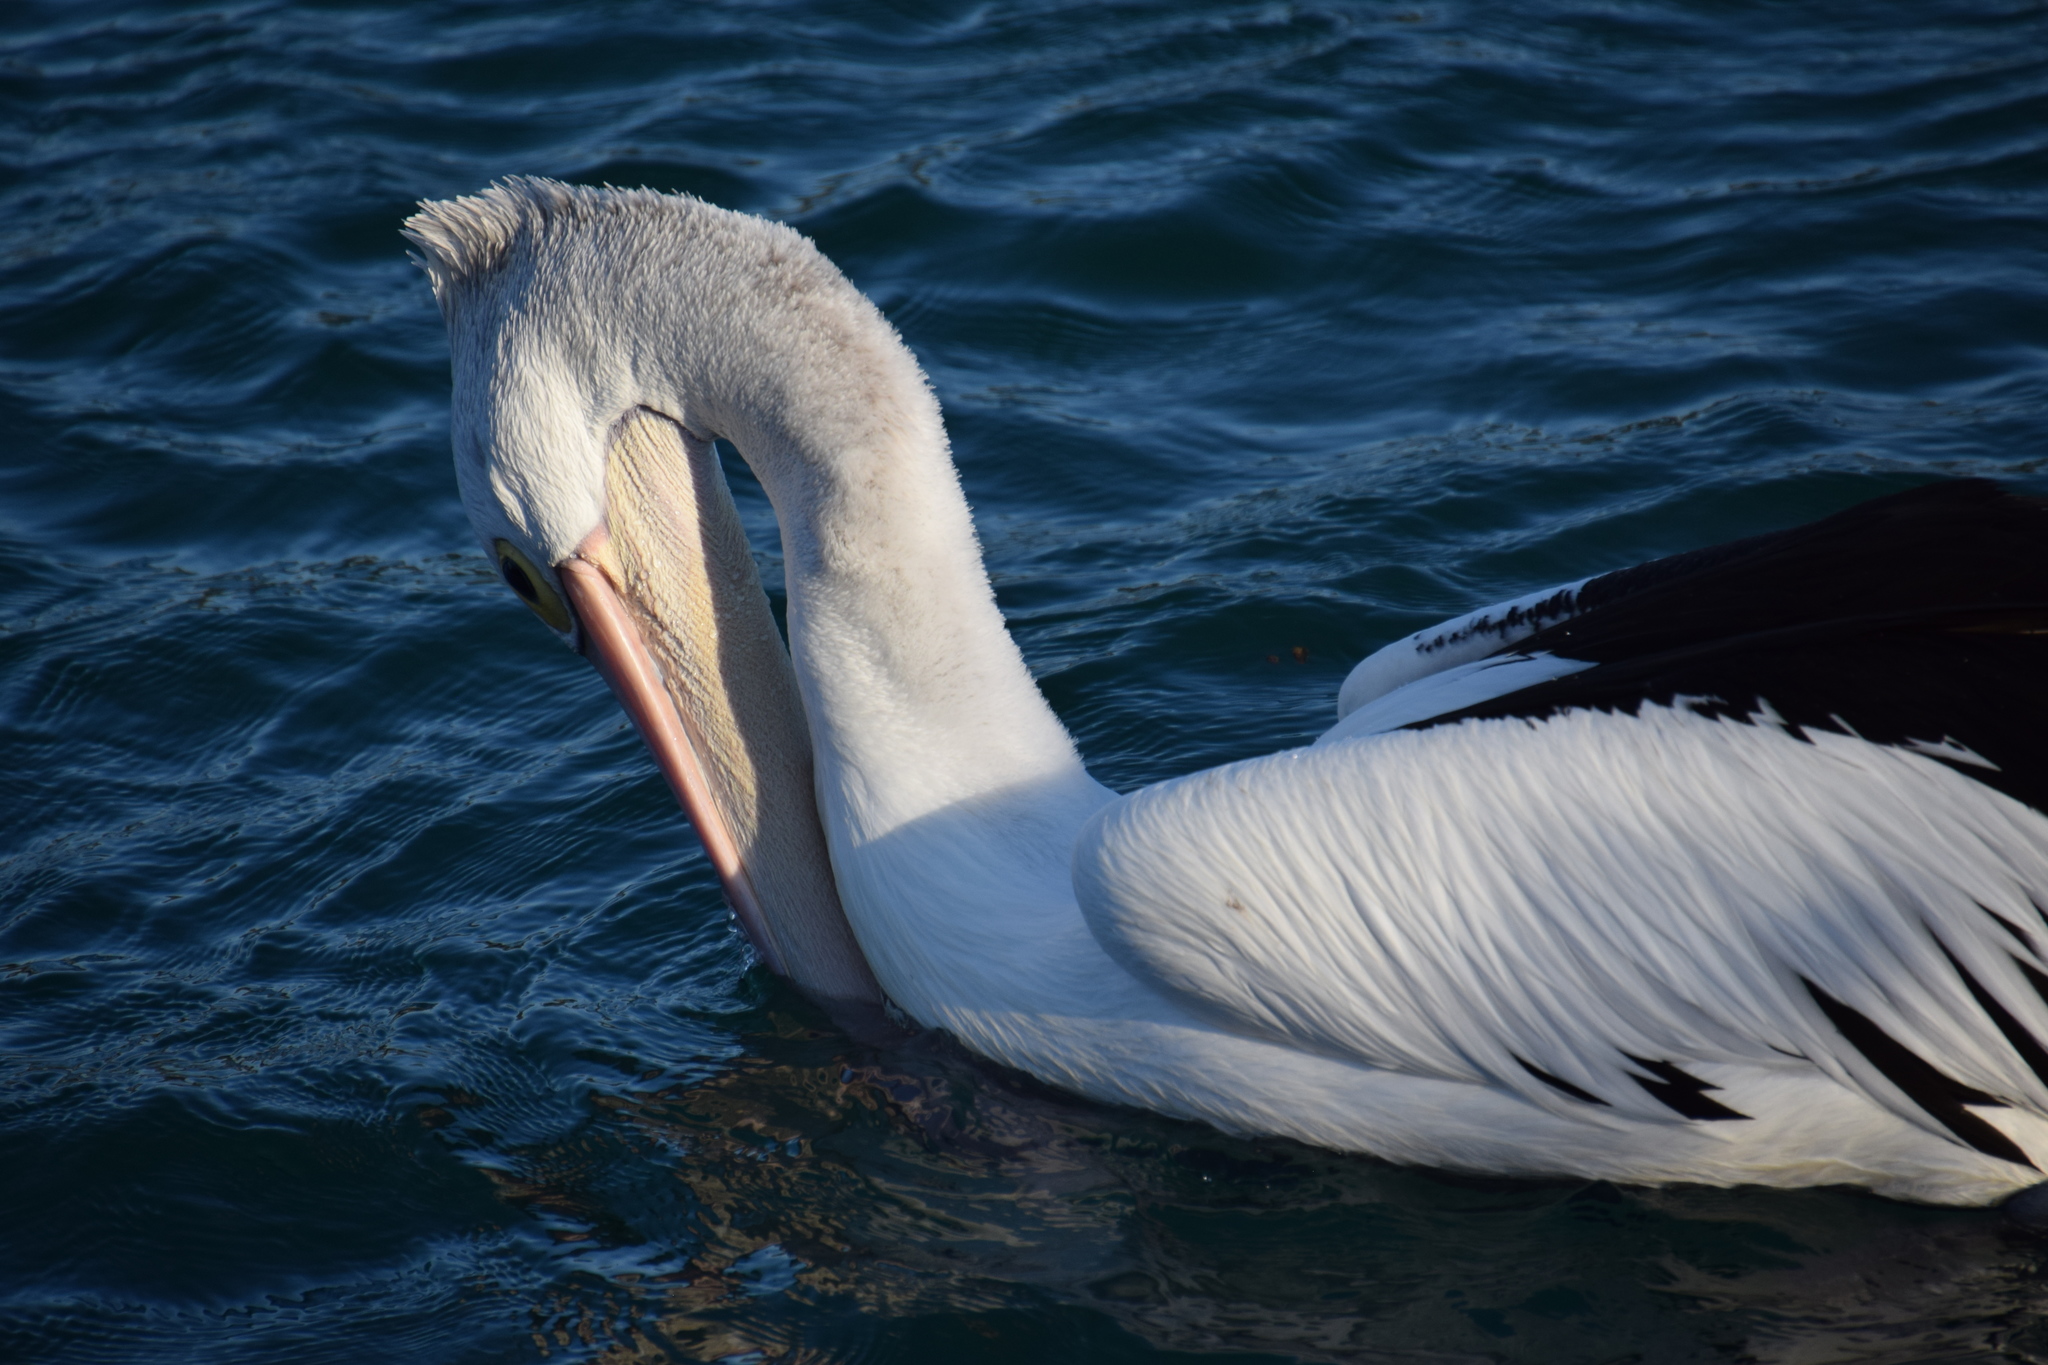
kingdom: Animalia
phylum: Chordata
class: Aves
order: Pelecaniformes
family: Pelecanidae
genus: Pelecanus
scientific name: Pelecanus conspicillatus
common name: Australian pelican
